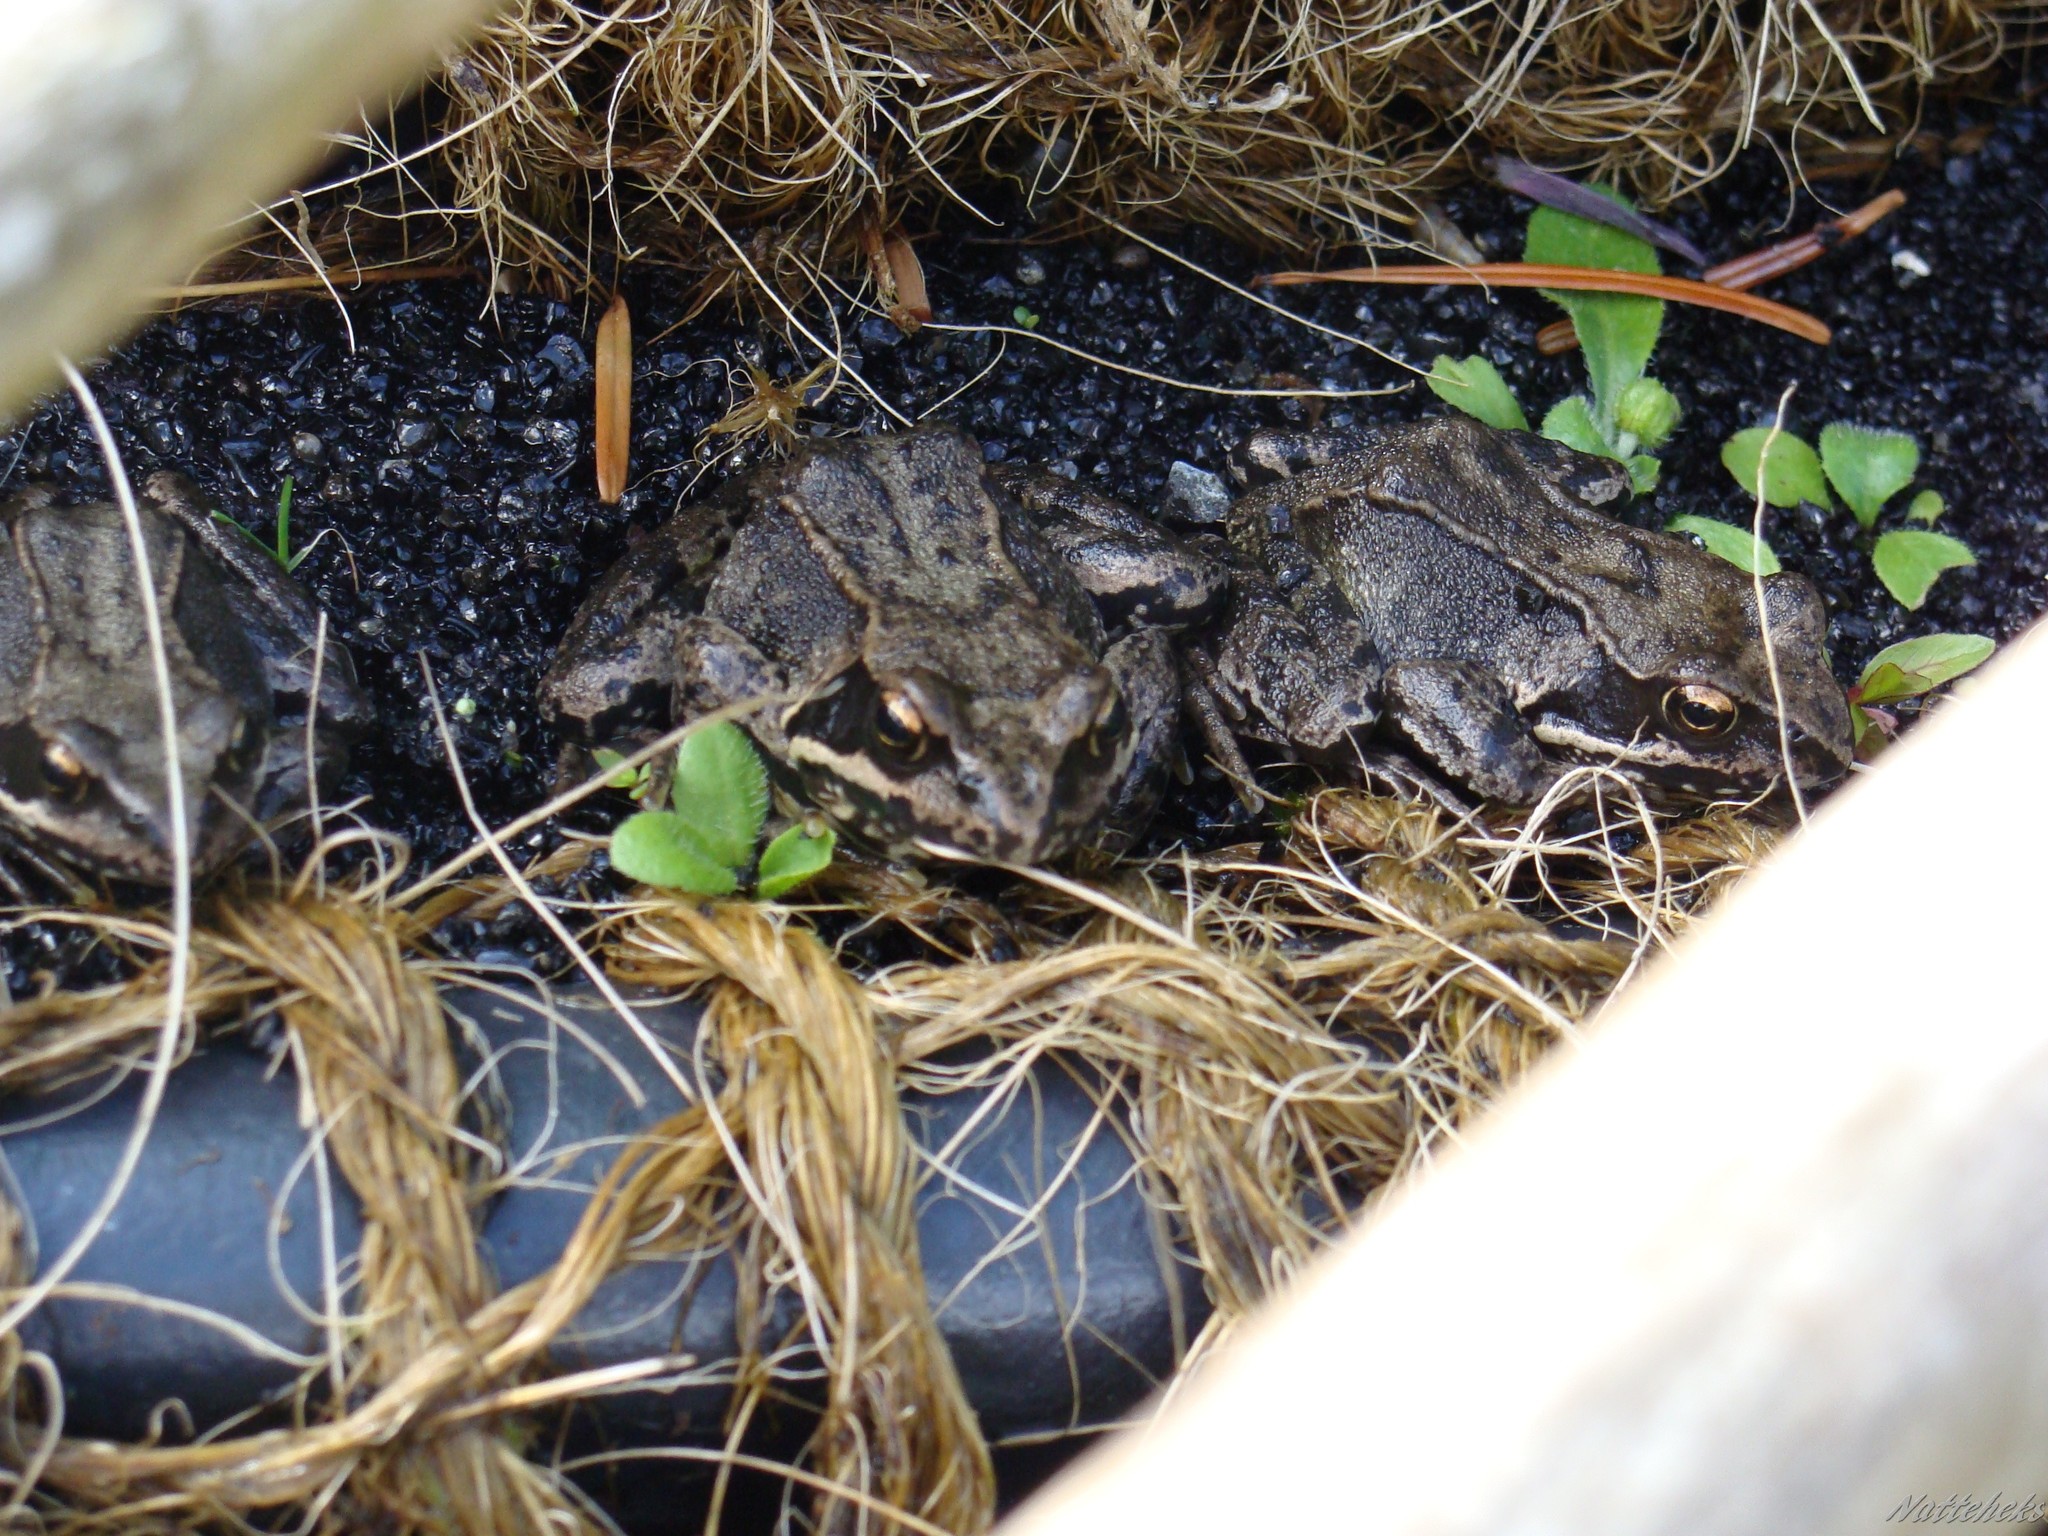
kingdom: Animalia
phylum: Chordata
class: Amphibia
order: Anura
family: Ranidae
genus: Rana
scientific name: Rana temporaria
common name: Common frog
